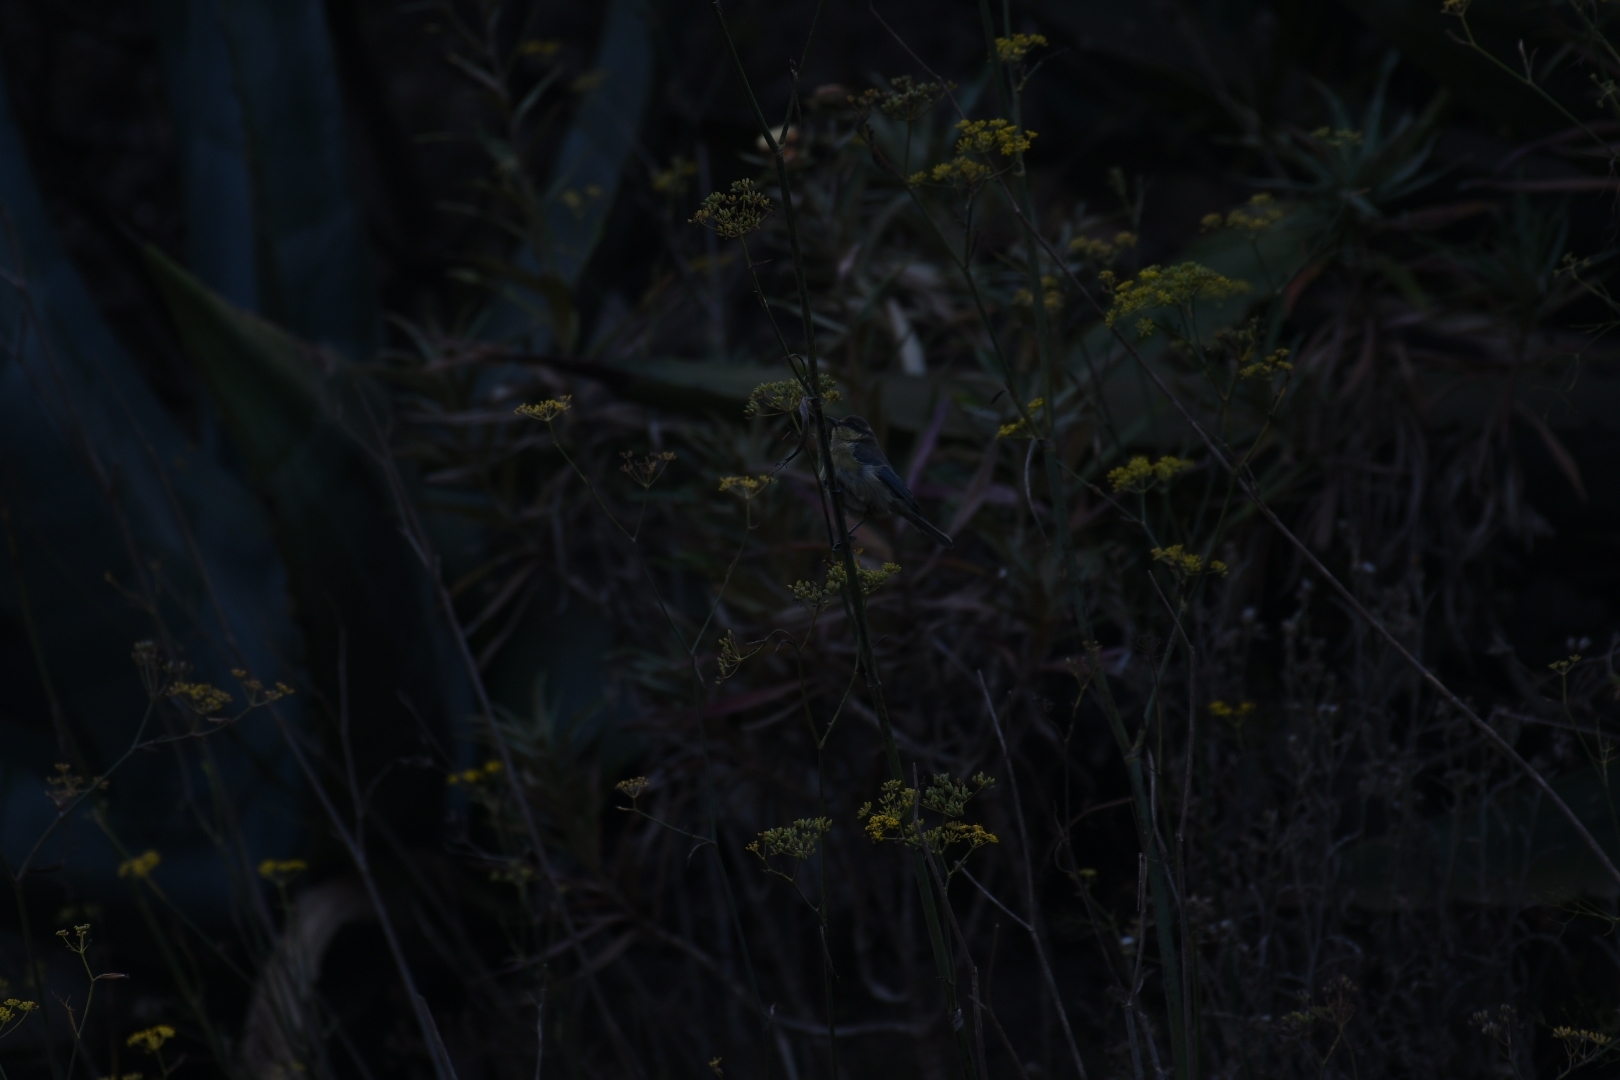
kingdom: Animalia
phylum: Chordata
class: Aves
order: Passeriformes
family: Paridae
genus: Cyanistes
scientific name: Cyanistes teneriffae
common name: African blue tit
